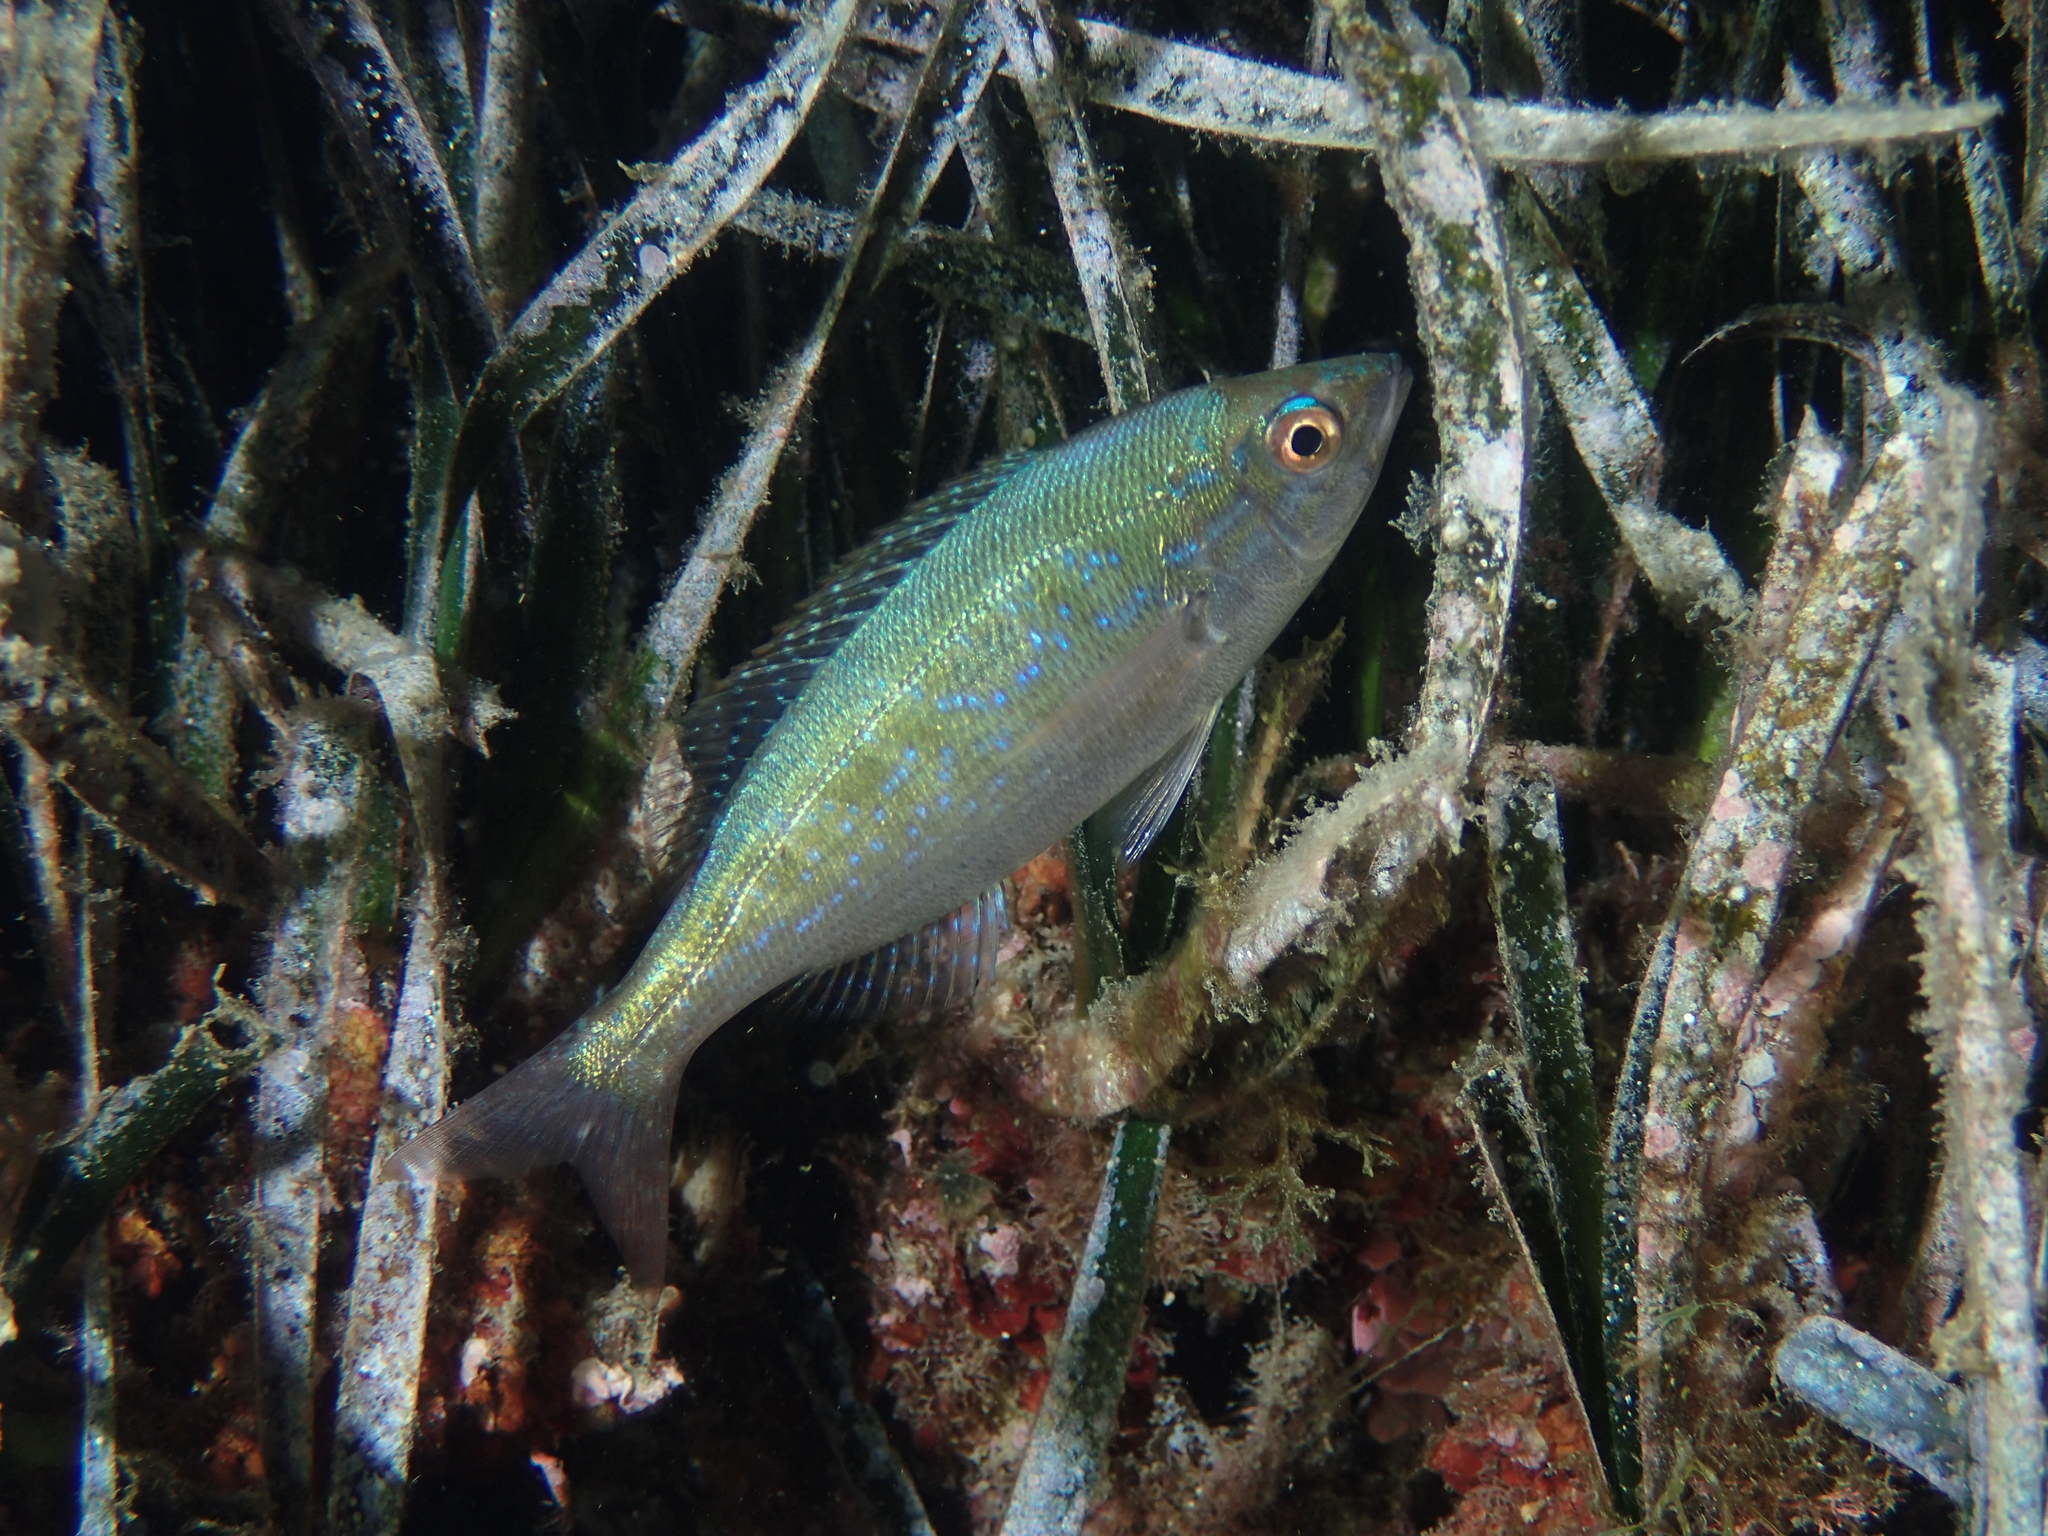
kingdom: Animalia
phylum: Chordata
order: Perciformes
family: Sparidae
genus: Spicara
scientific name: Spicara maena
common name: Blotched picarel
